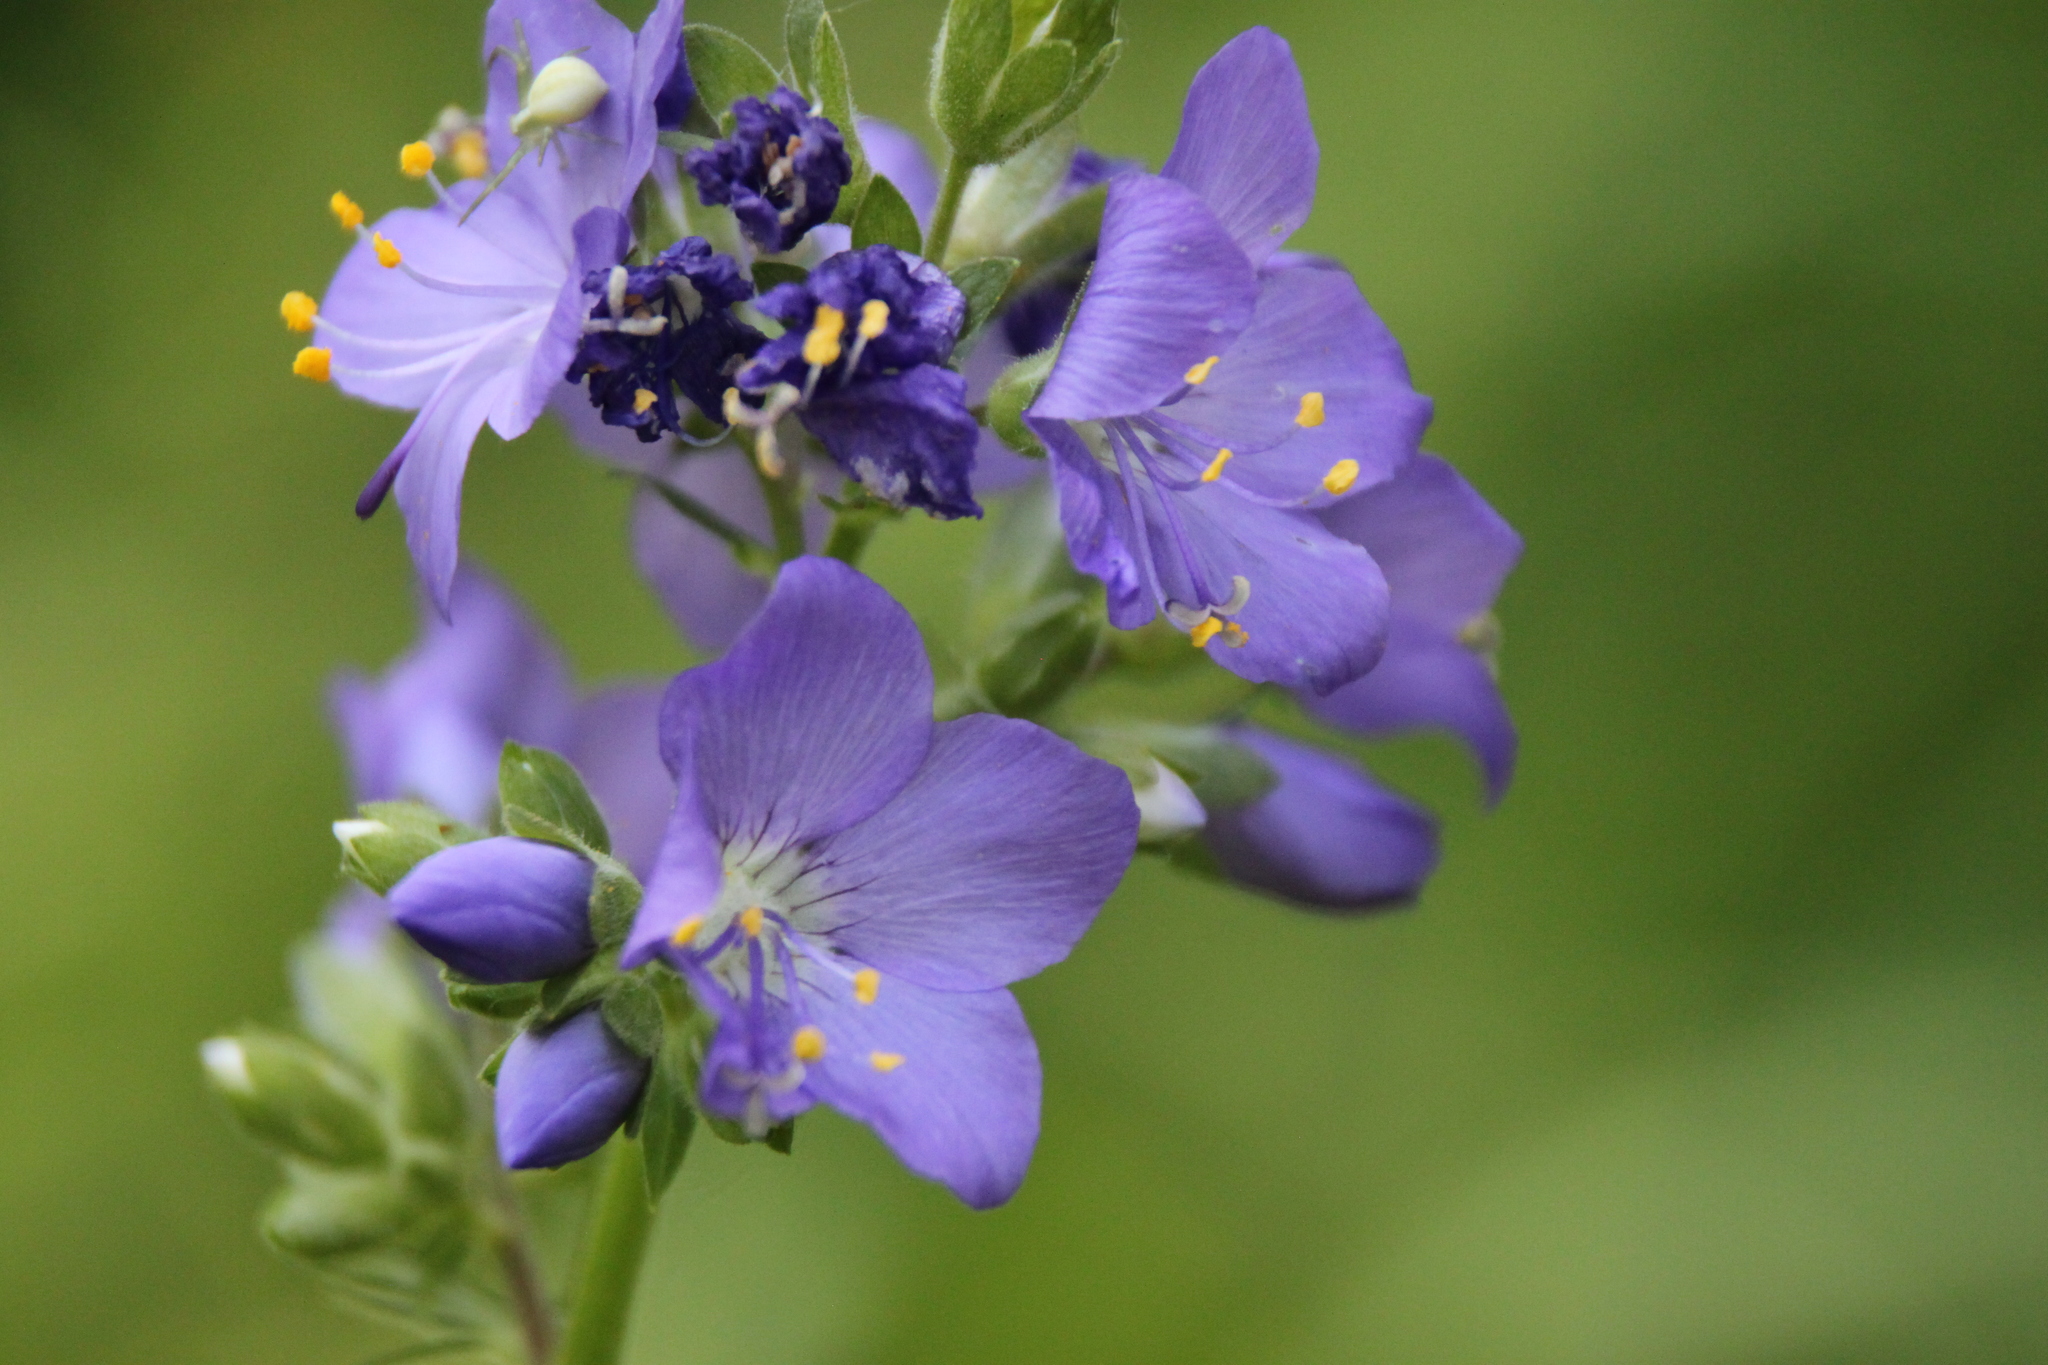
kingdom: Plantae
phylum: Tracheophyta
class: Magnoliopsida
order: Ericales
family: Polemoniaceae
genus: Polemonium
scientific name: Polemonium caeruleum
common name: Jacob's-ladder
